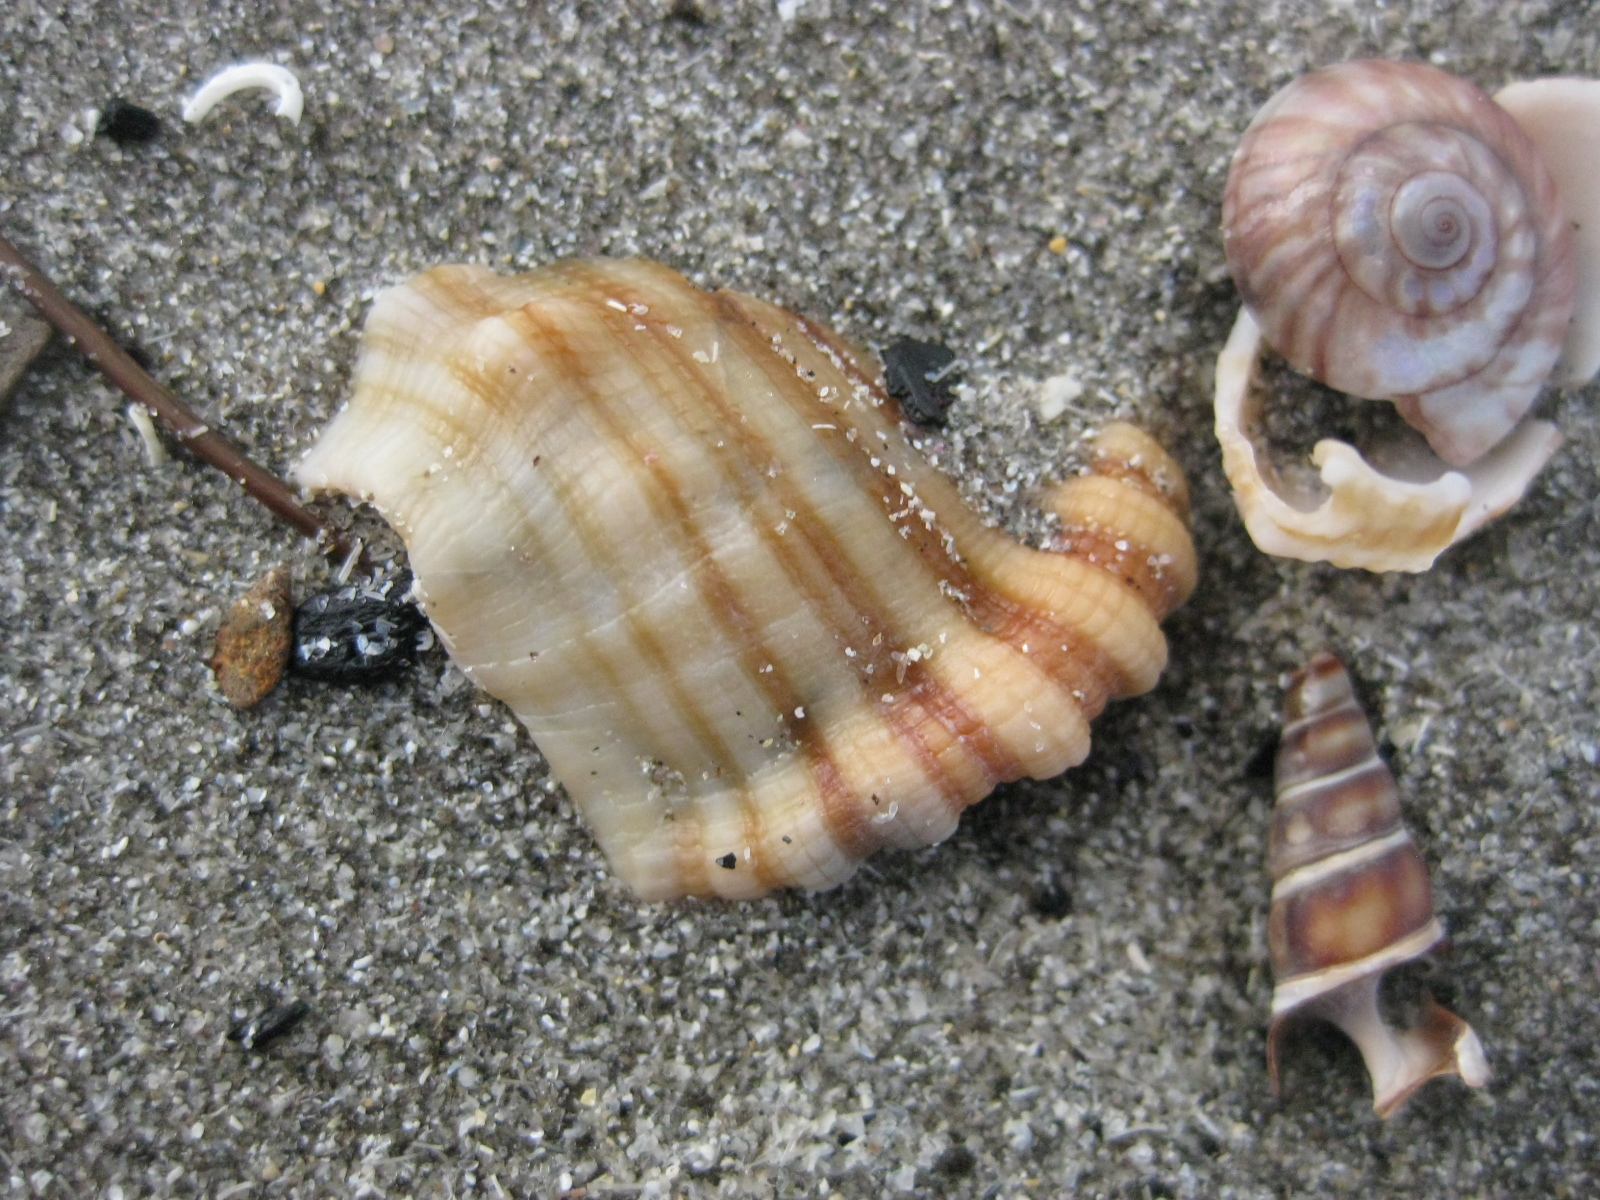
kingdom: Animalia
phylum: Mollusca
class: Gastropoda
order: Littorinimorpha
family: Cymatiidae
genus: Cabestana
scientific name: Cabestana spengleri
